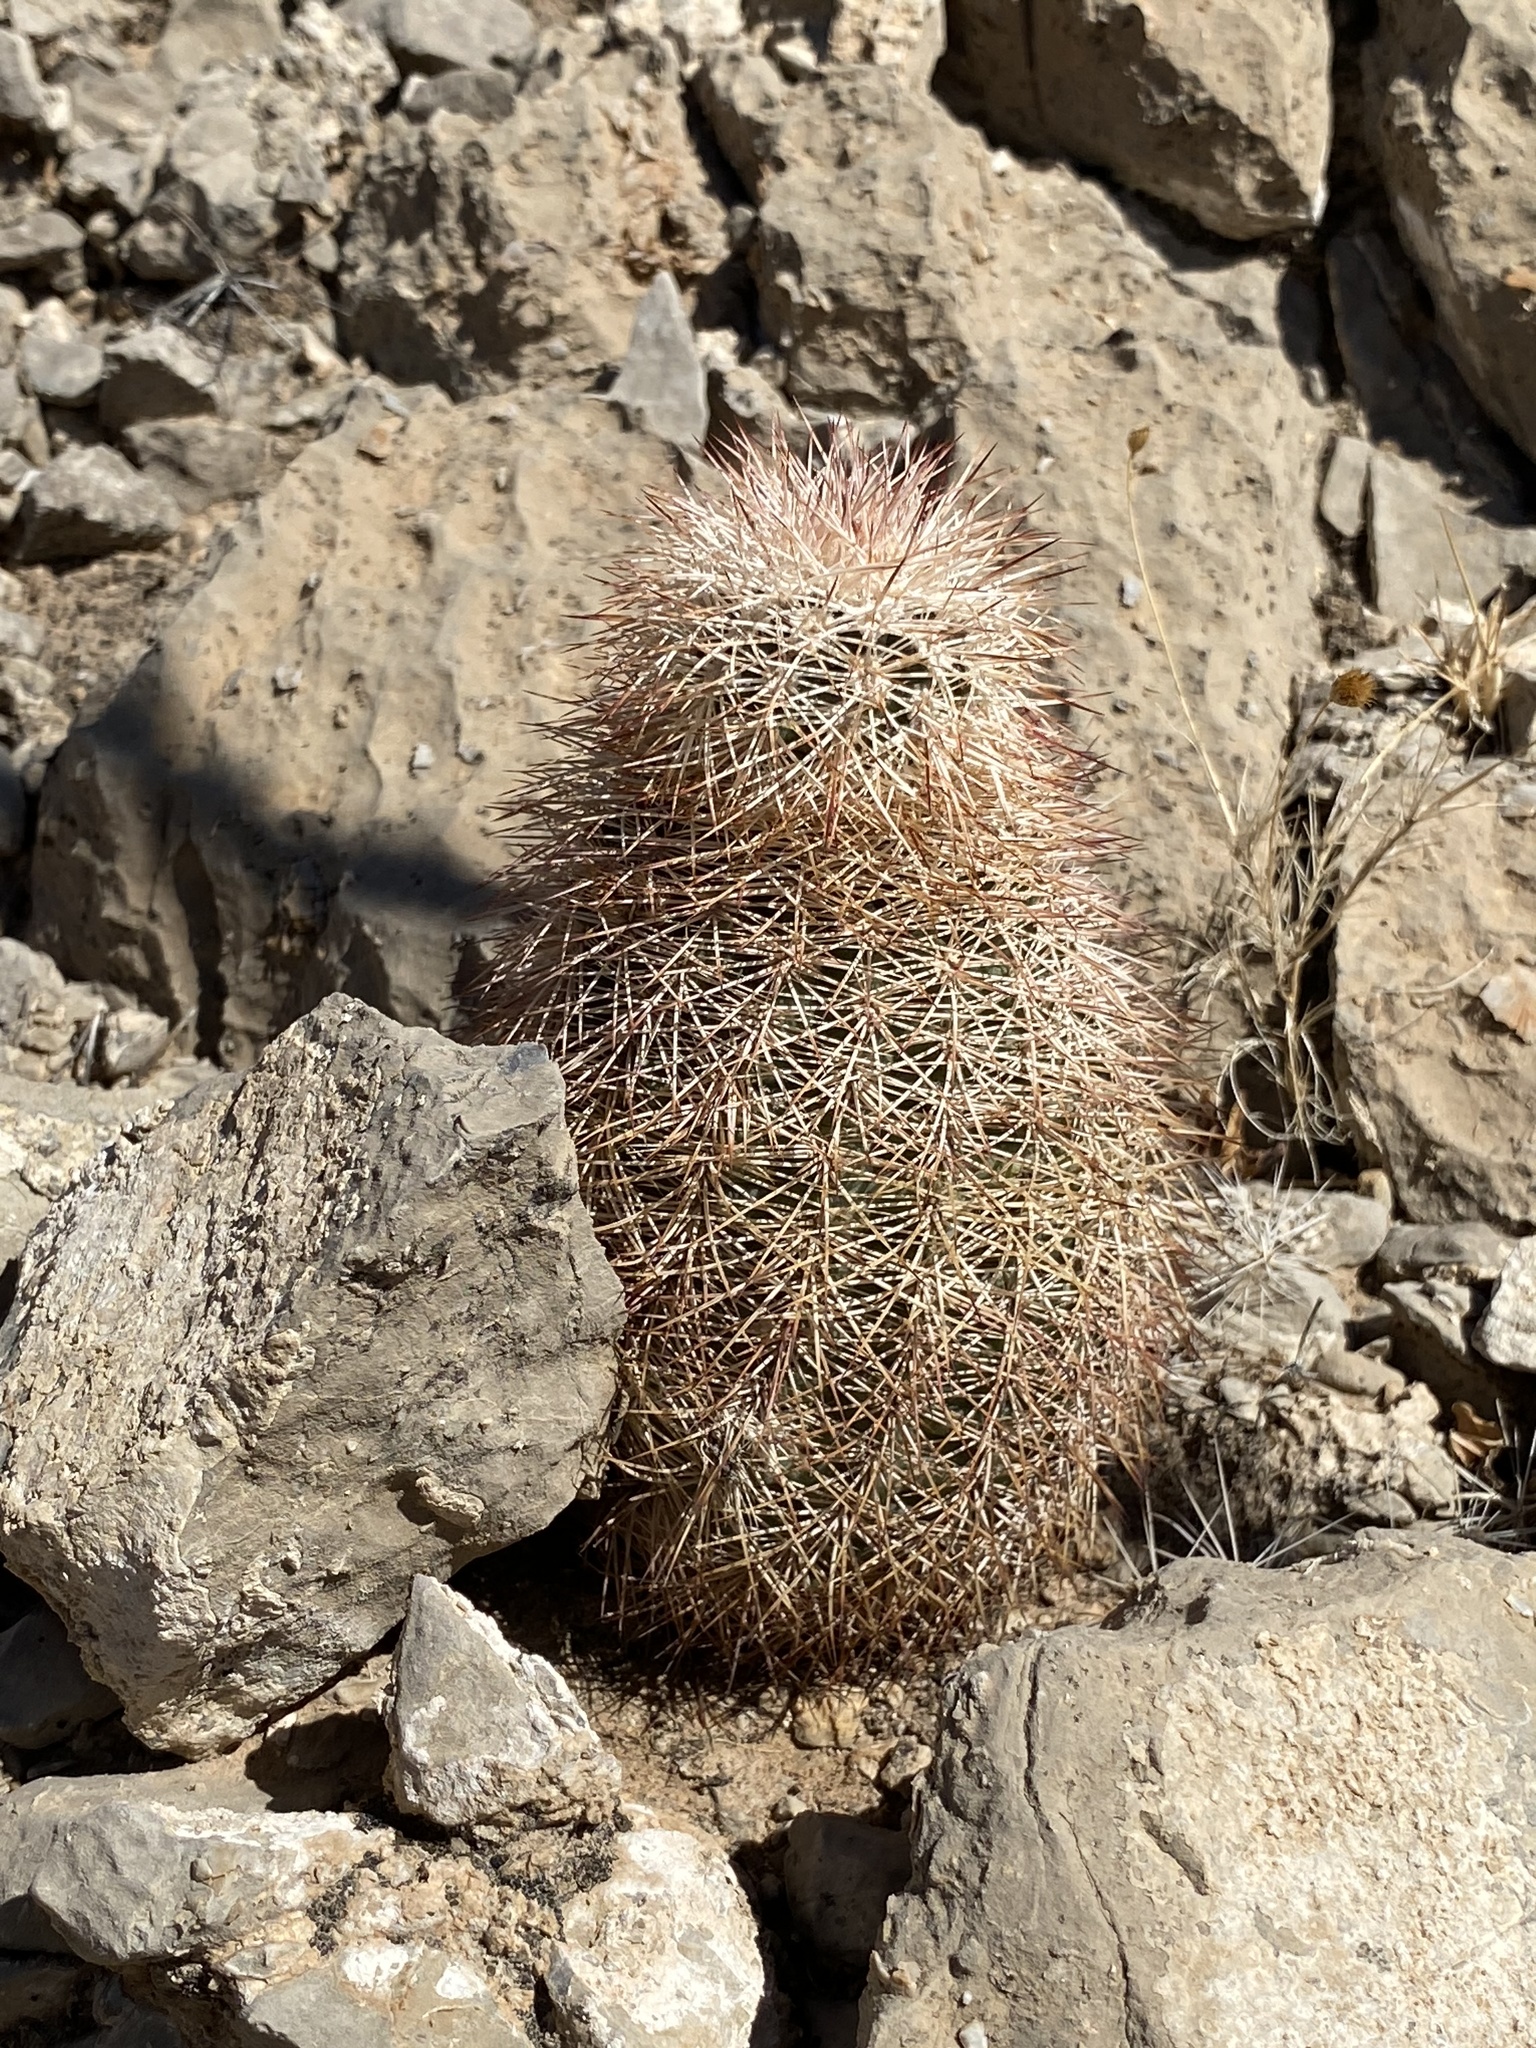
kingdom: Plantae
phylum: Tracheophyta
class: Magnoliopsida
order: Caryophyllales
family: Cactaceae
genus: Echinocereus
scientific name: Echinocereus dasyacanthus
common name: Spiny hedgehog cactus
